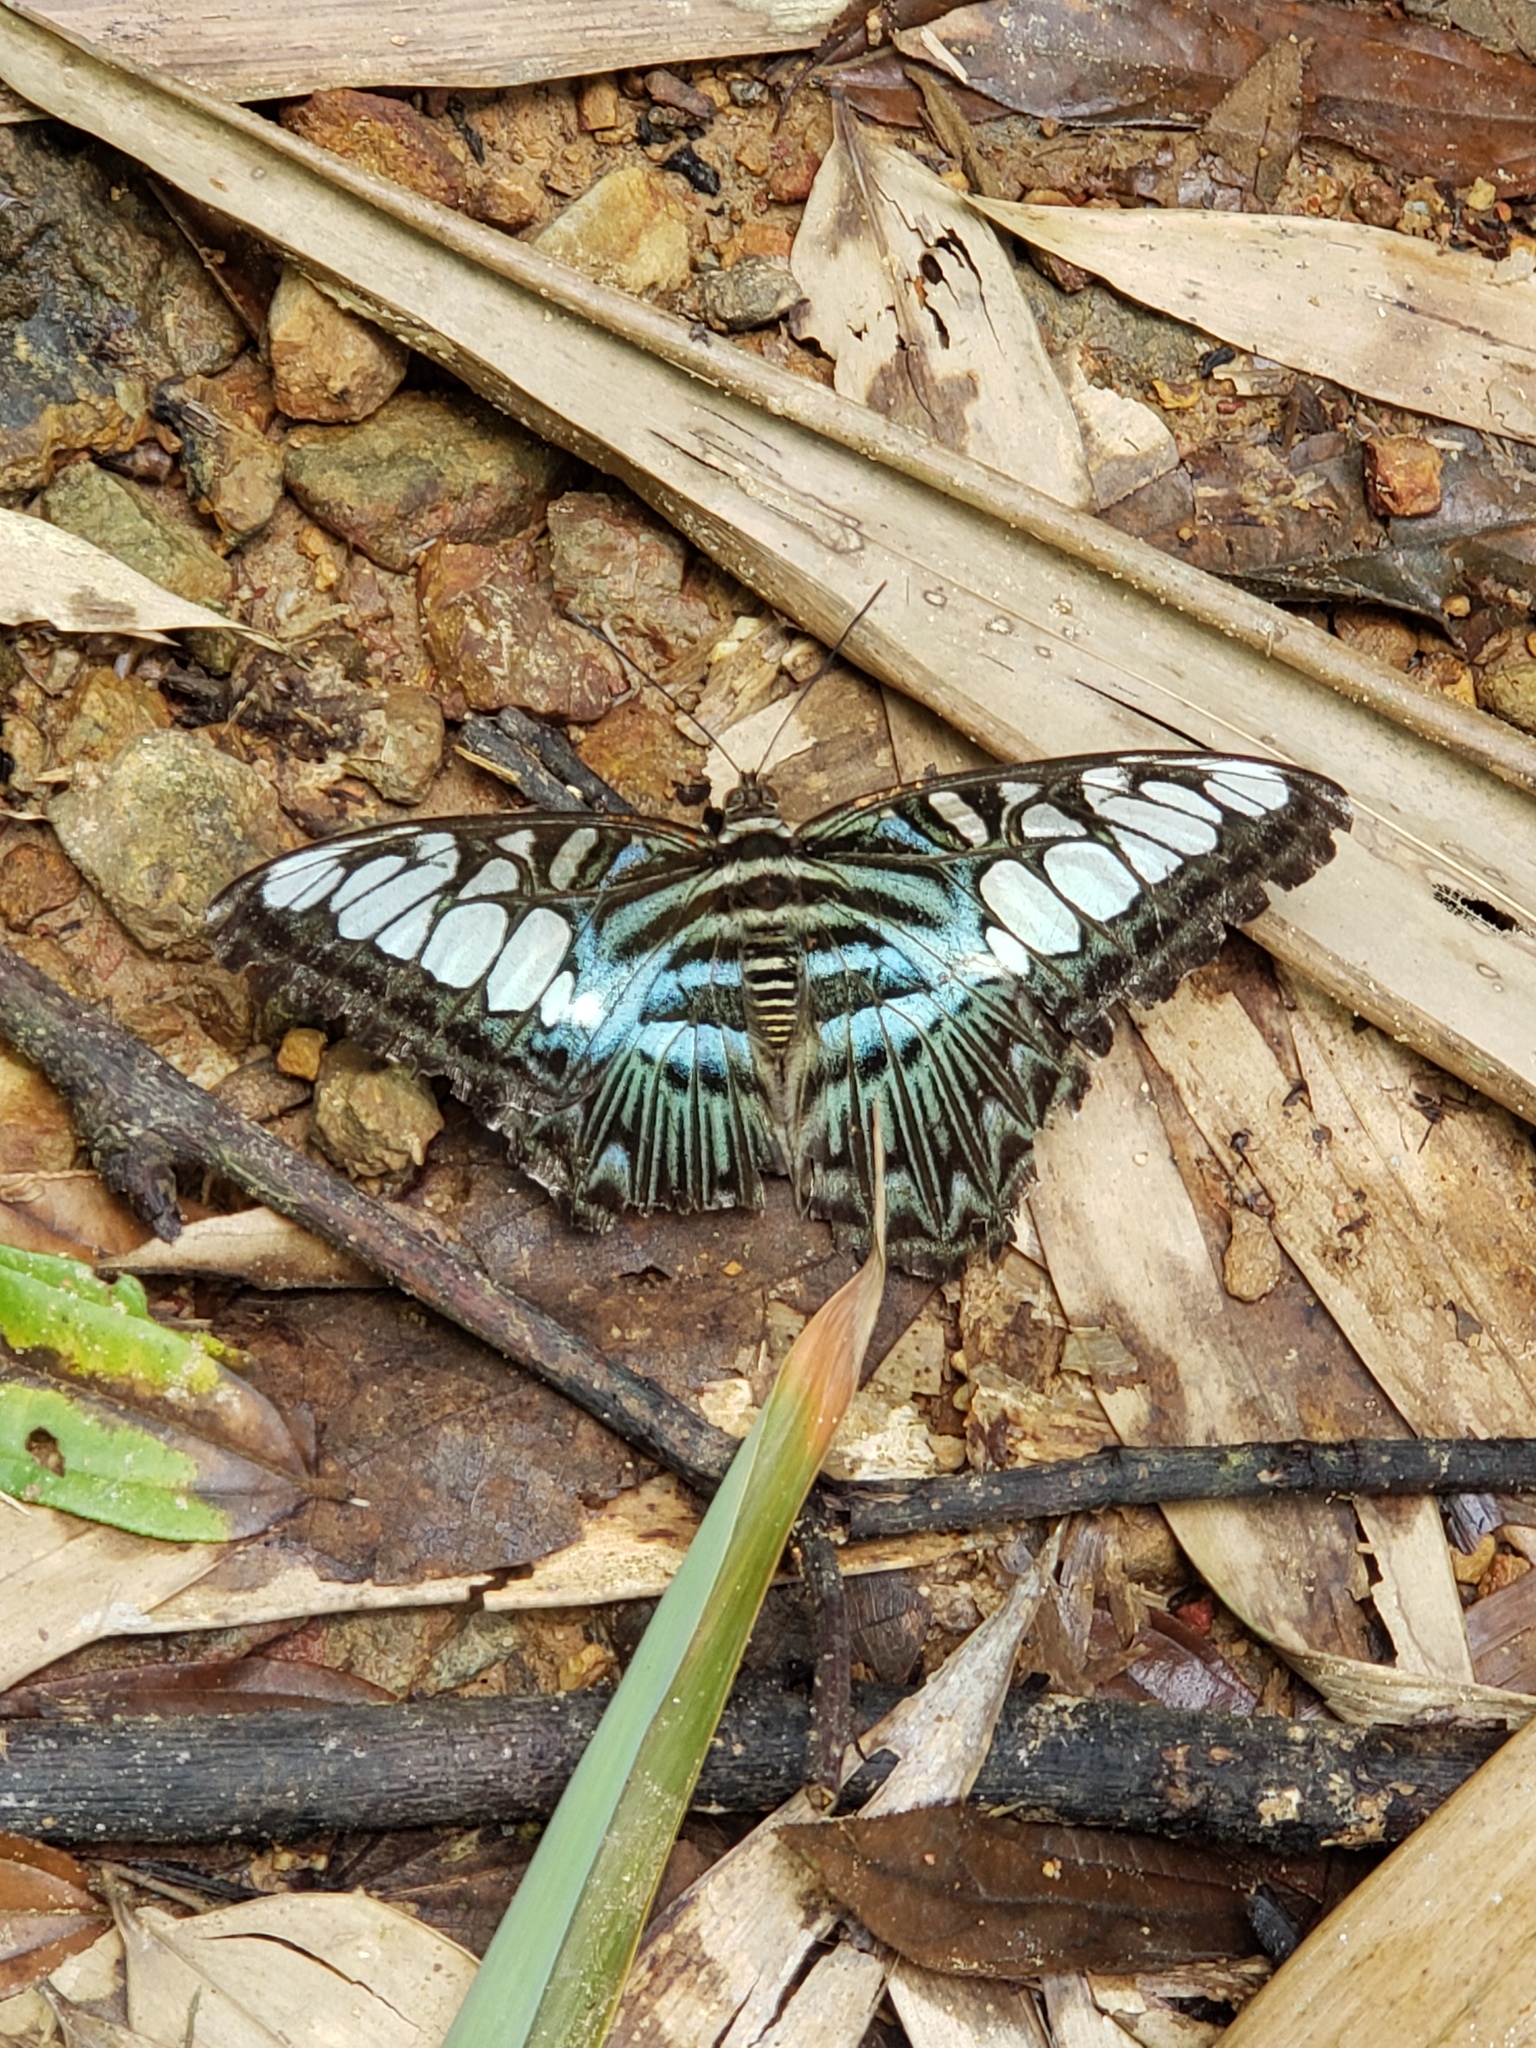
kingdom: Animalia
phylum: Arthropoda
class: Insecta
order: Lepidoptera
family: Nymphalidae
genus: Kallima
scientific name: Kallima sylvia
